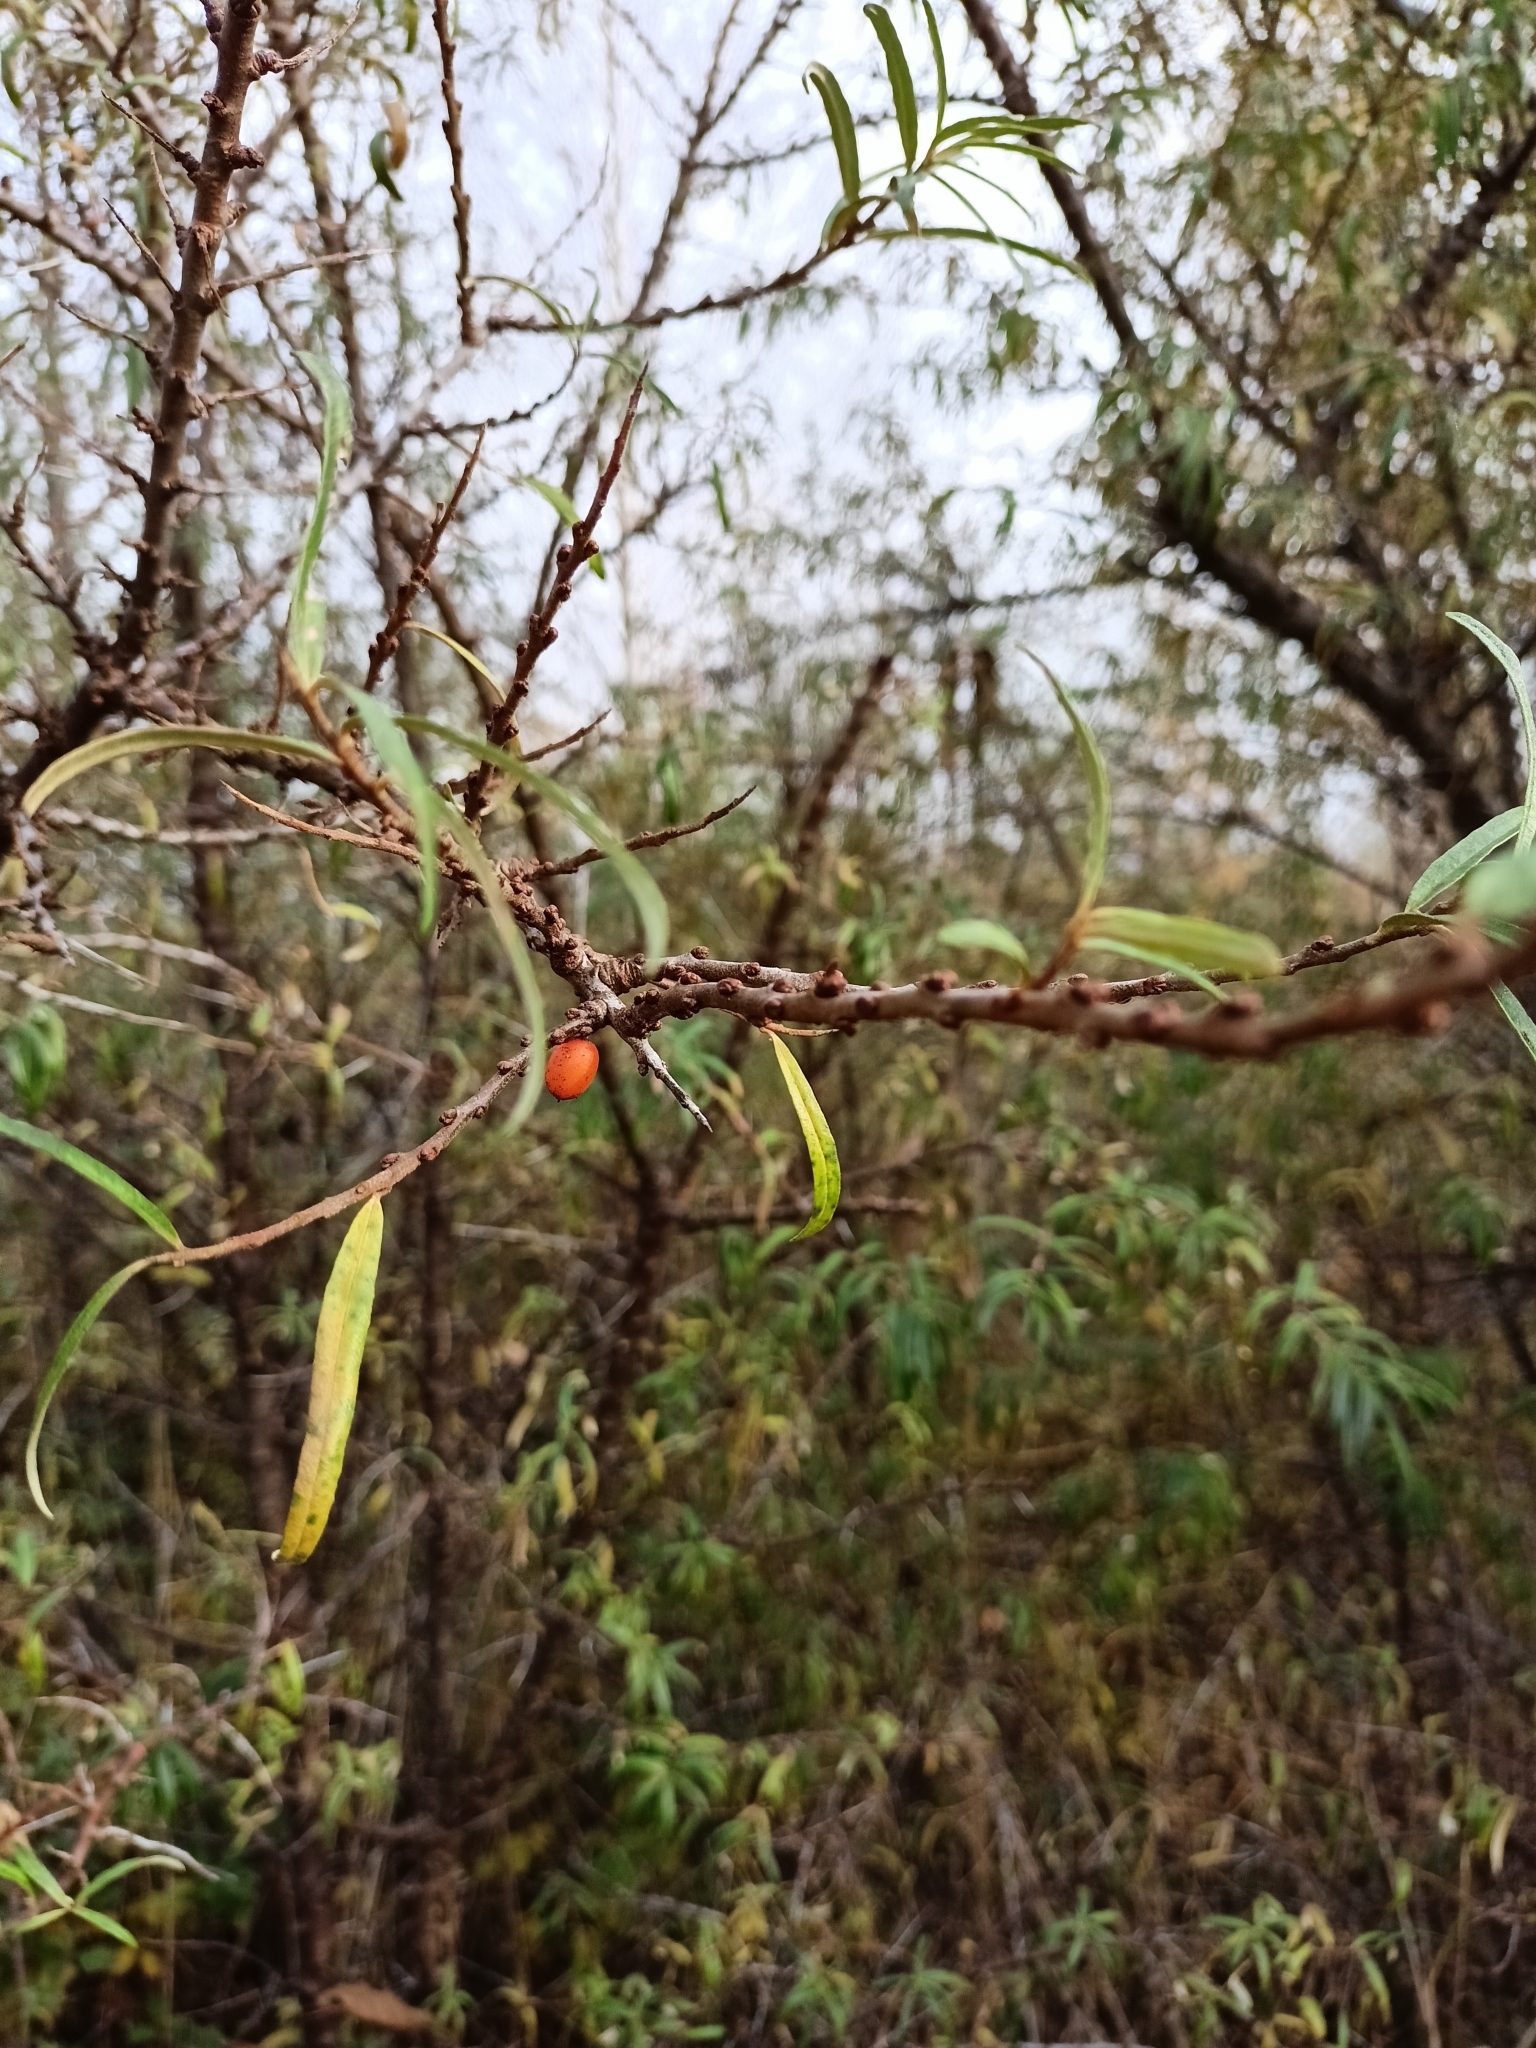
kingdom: Plantae
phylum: Tracheophyta
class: Magnoliopsida
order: Rosales
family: Elaeagnaceae
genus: Hippophae
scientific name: Hippophae rhamnoides
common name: Sea-buckthorn
